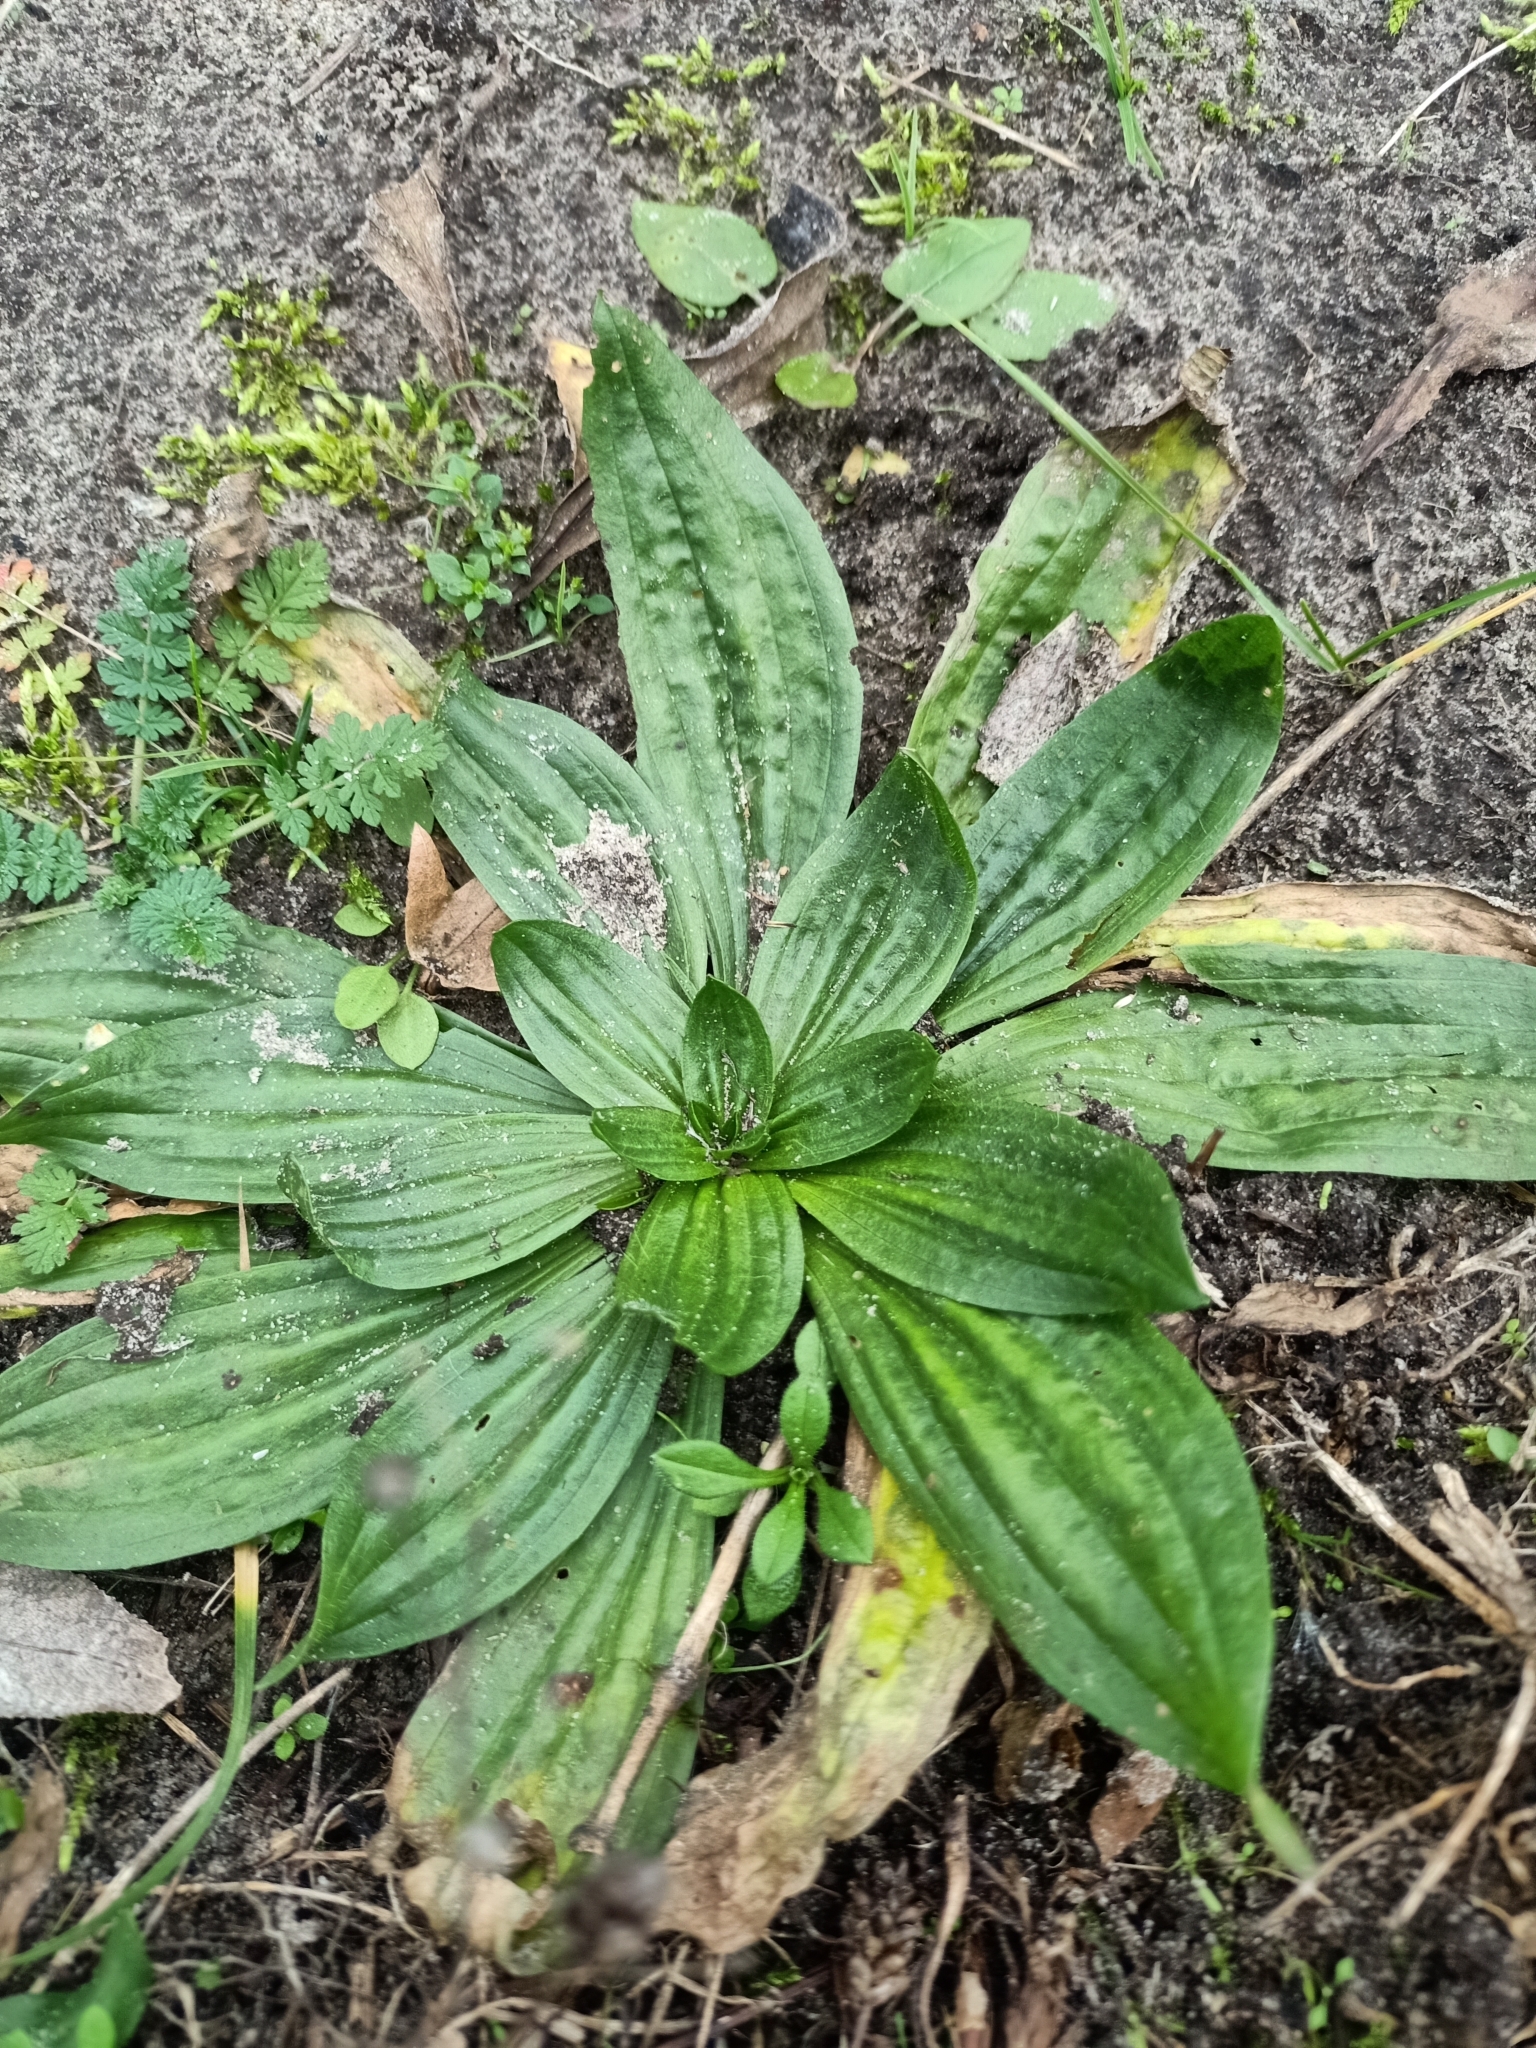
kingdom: Plantae
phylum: Tracheophyta
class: Magnoliopsida
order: Lamiales
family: Plantaginaceae
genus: Plantago
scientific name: Plantago media
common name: Hoary plantain
